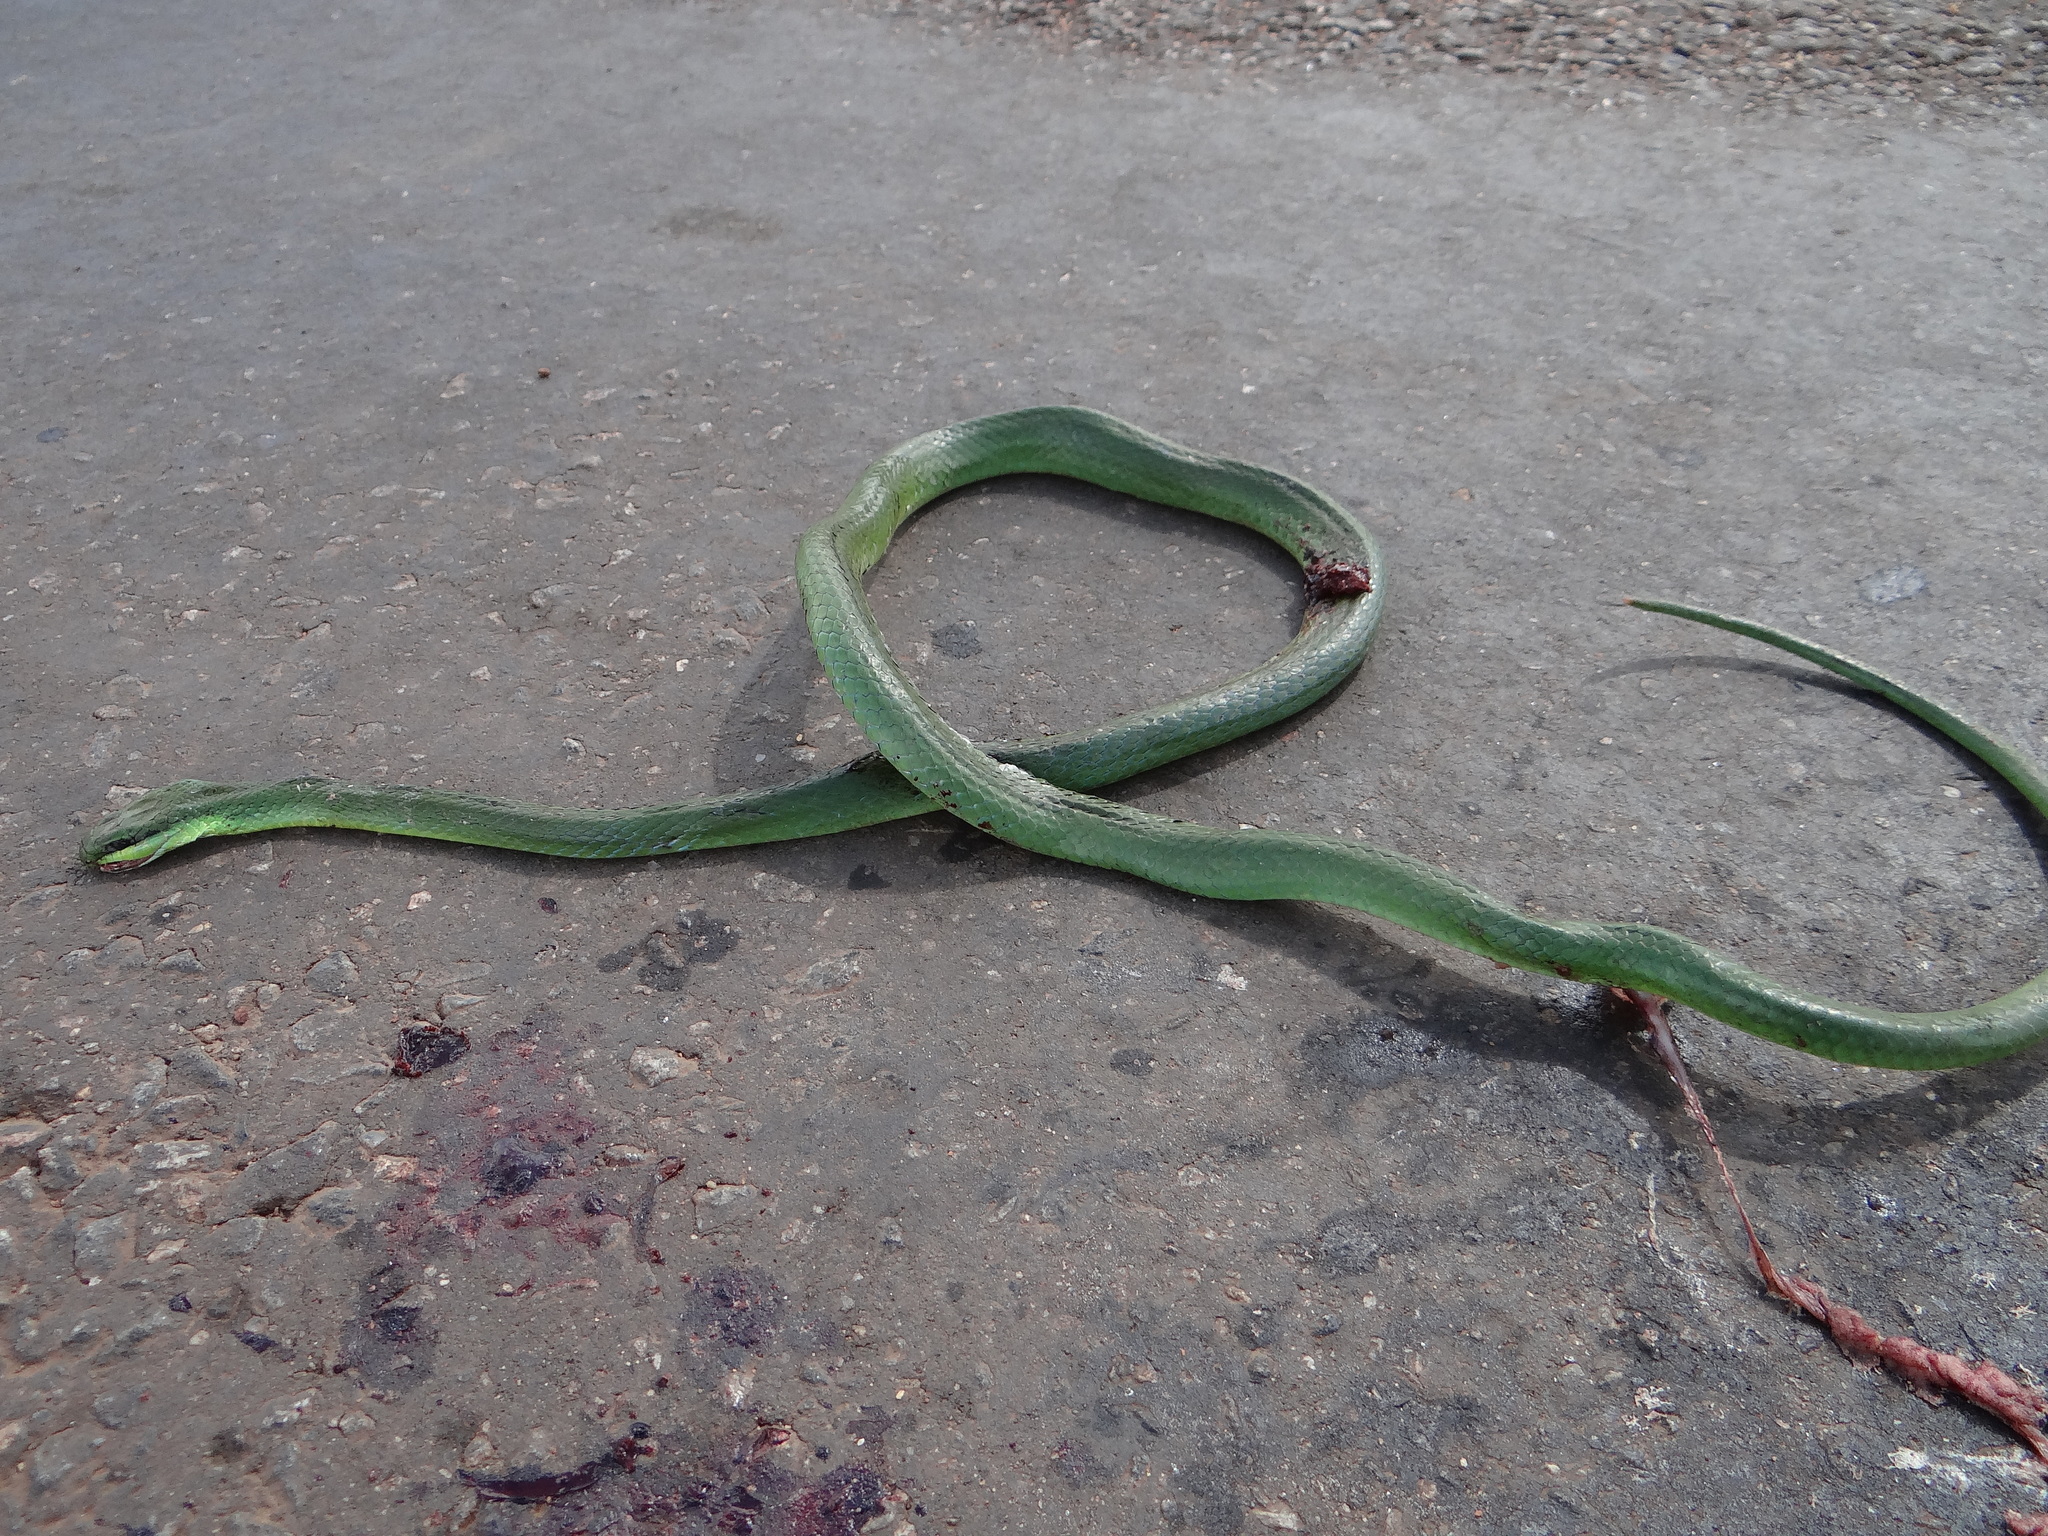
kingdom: Animalia
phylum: Chordata
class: Squamata
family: Colubridae
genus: Philodryas
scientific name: Philodryas olfersii
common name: Lichtenstein's green racer
